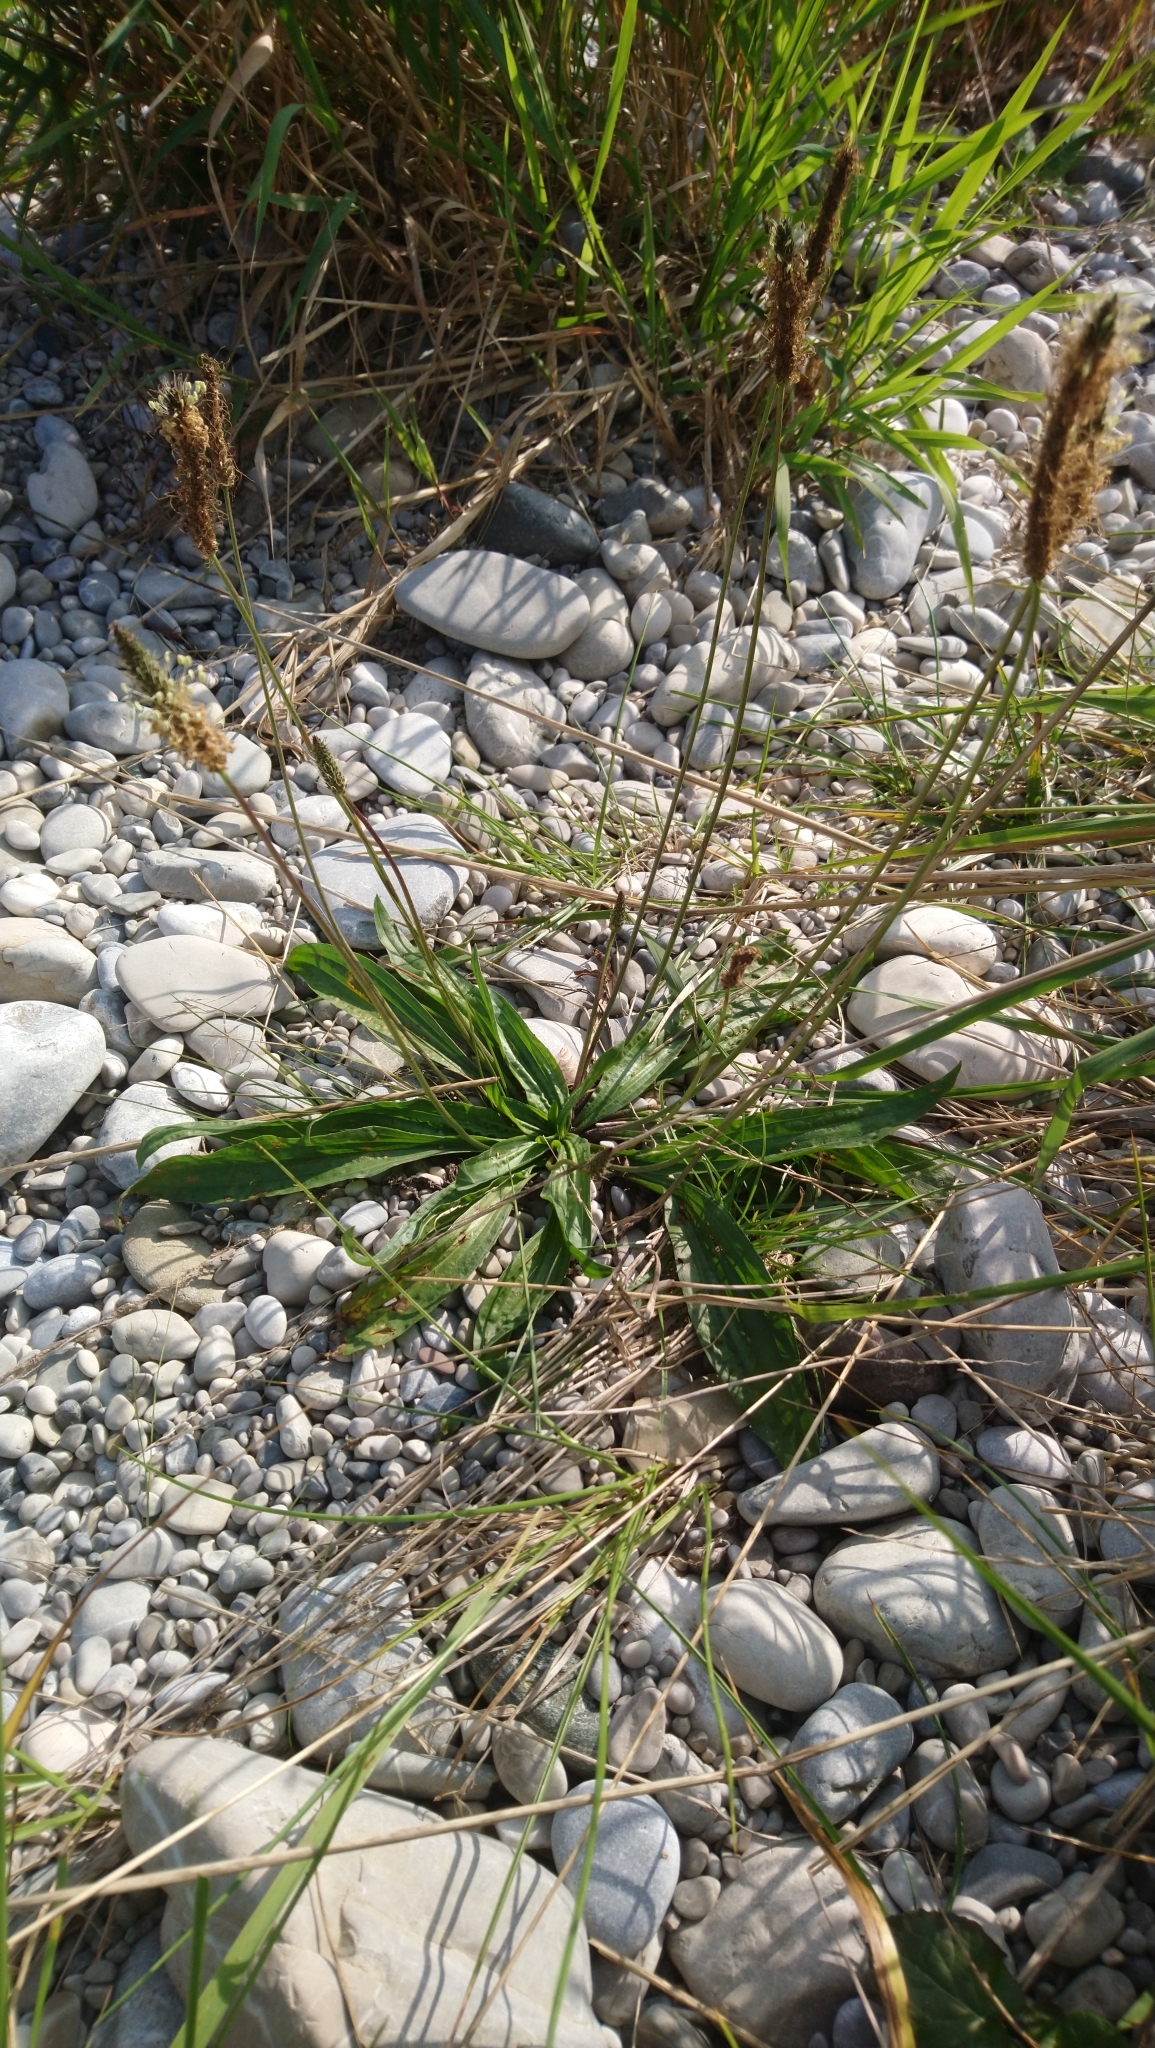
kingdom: Plantae
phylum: Tracheophyta
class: Magnoliopsida
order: Lamiales
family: Plantaginaceae
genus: Plantago
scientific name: Plantago lanceolata
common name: Ribwort plantain
